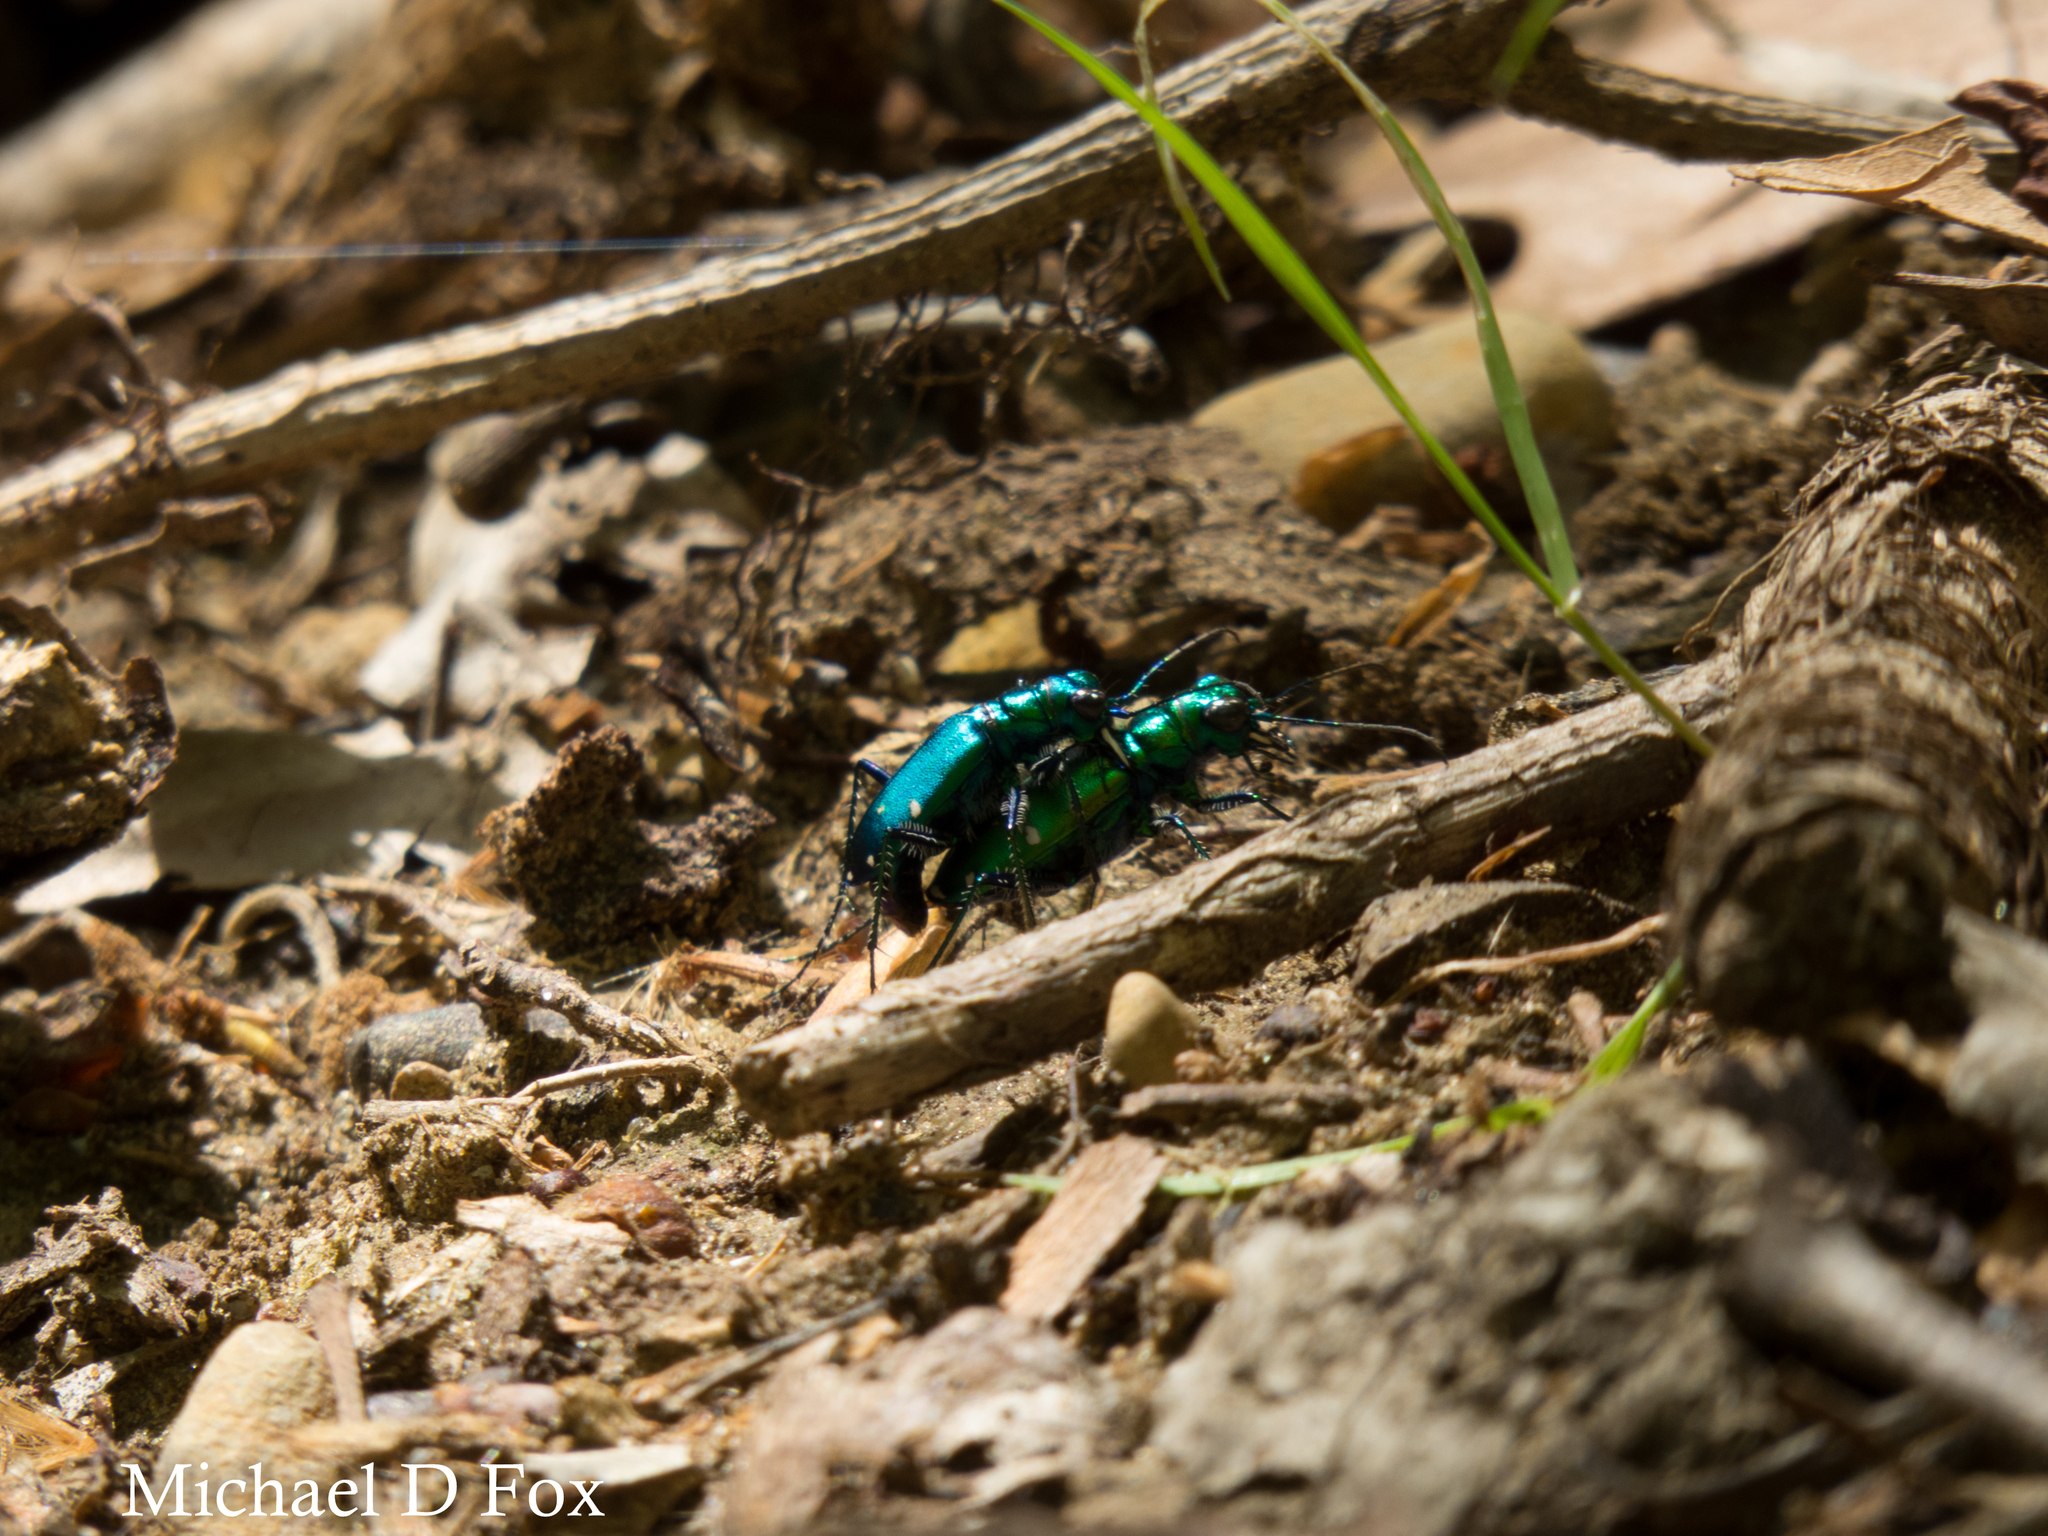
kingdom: Animalia
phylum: Arthropoda
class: Insecta
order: Coleoptera
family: Carabidae
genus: Cicindela
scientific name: Cicindela sexguttata
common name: Six-spotted tiger beetle
